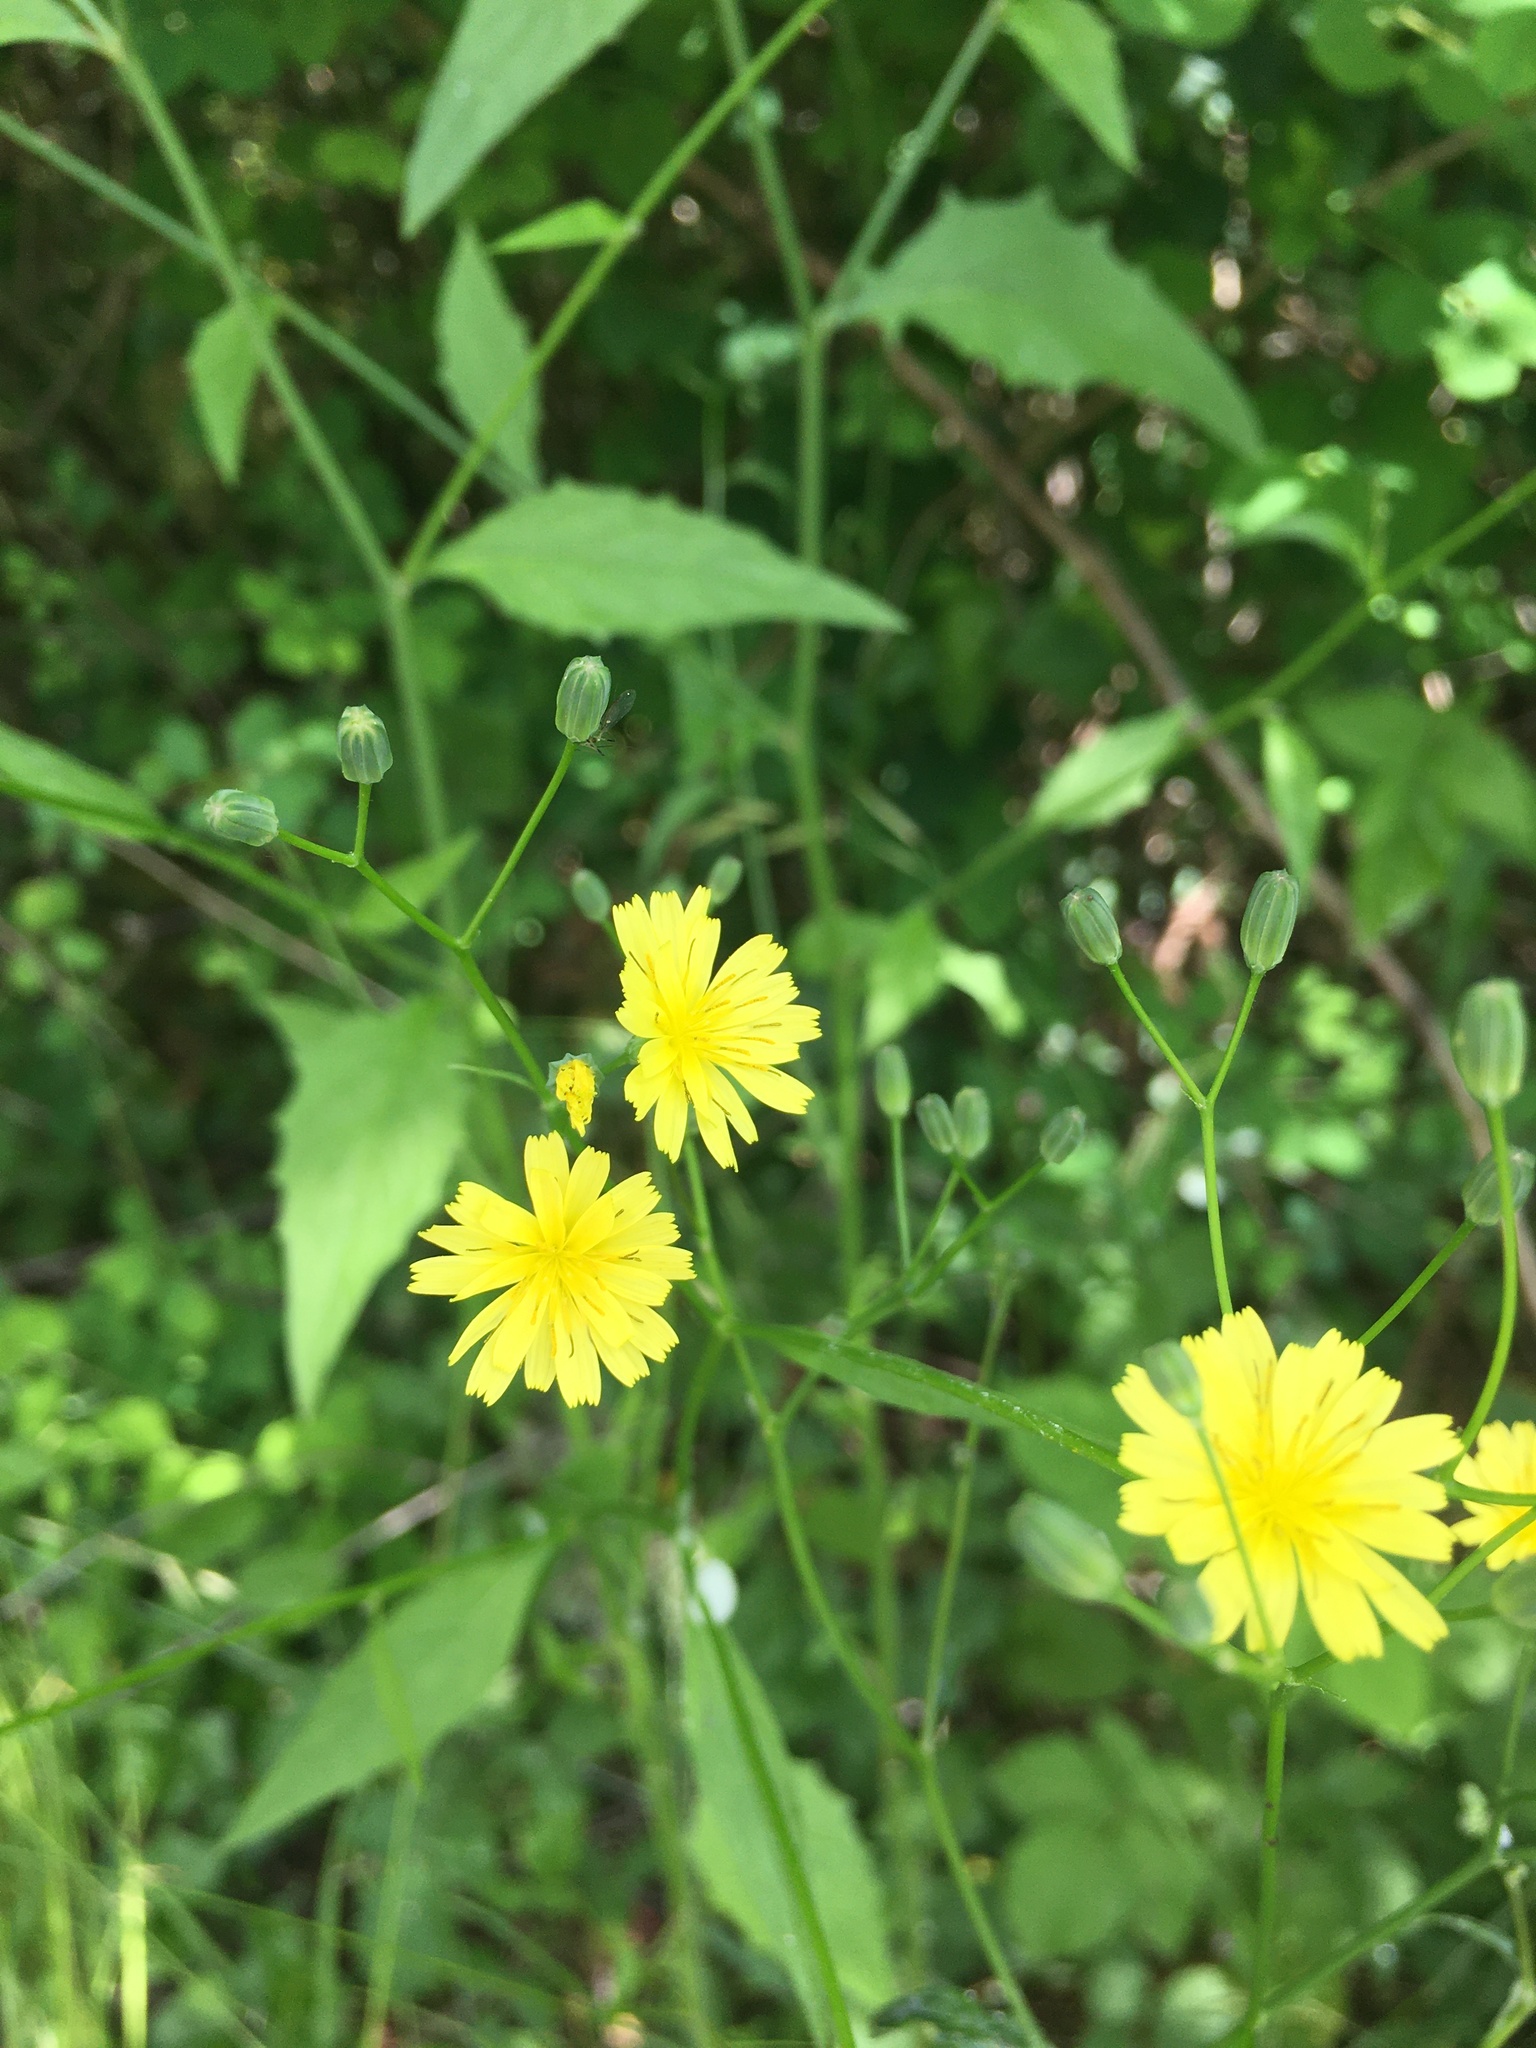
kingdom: Plantae
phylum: Tracheophyta
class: Magnoliopsida
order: Asterales
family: Asteraceae
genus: Lapsana
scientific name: Lapsana communis
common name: Nipplewort
